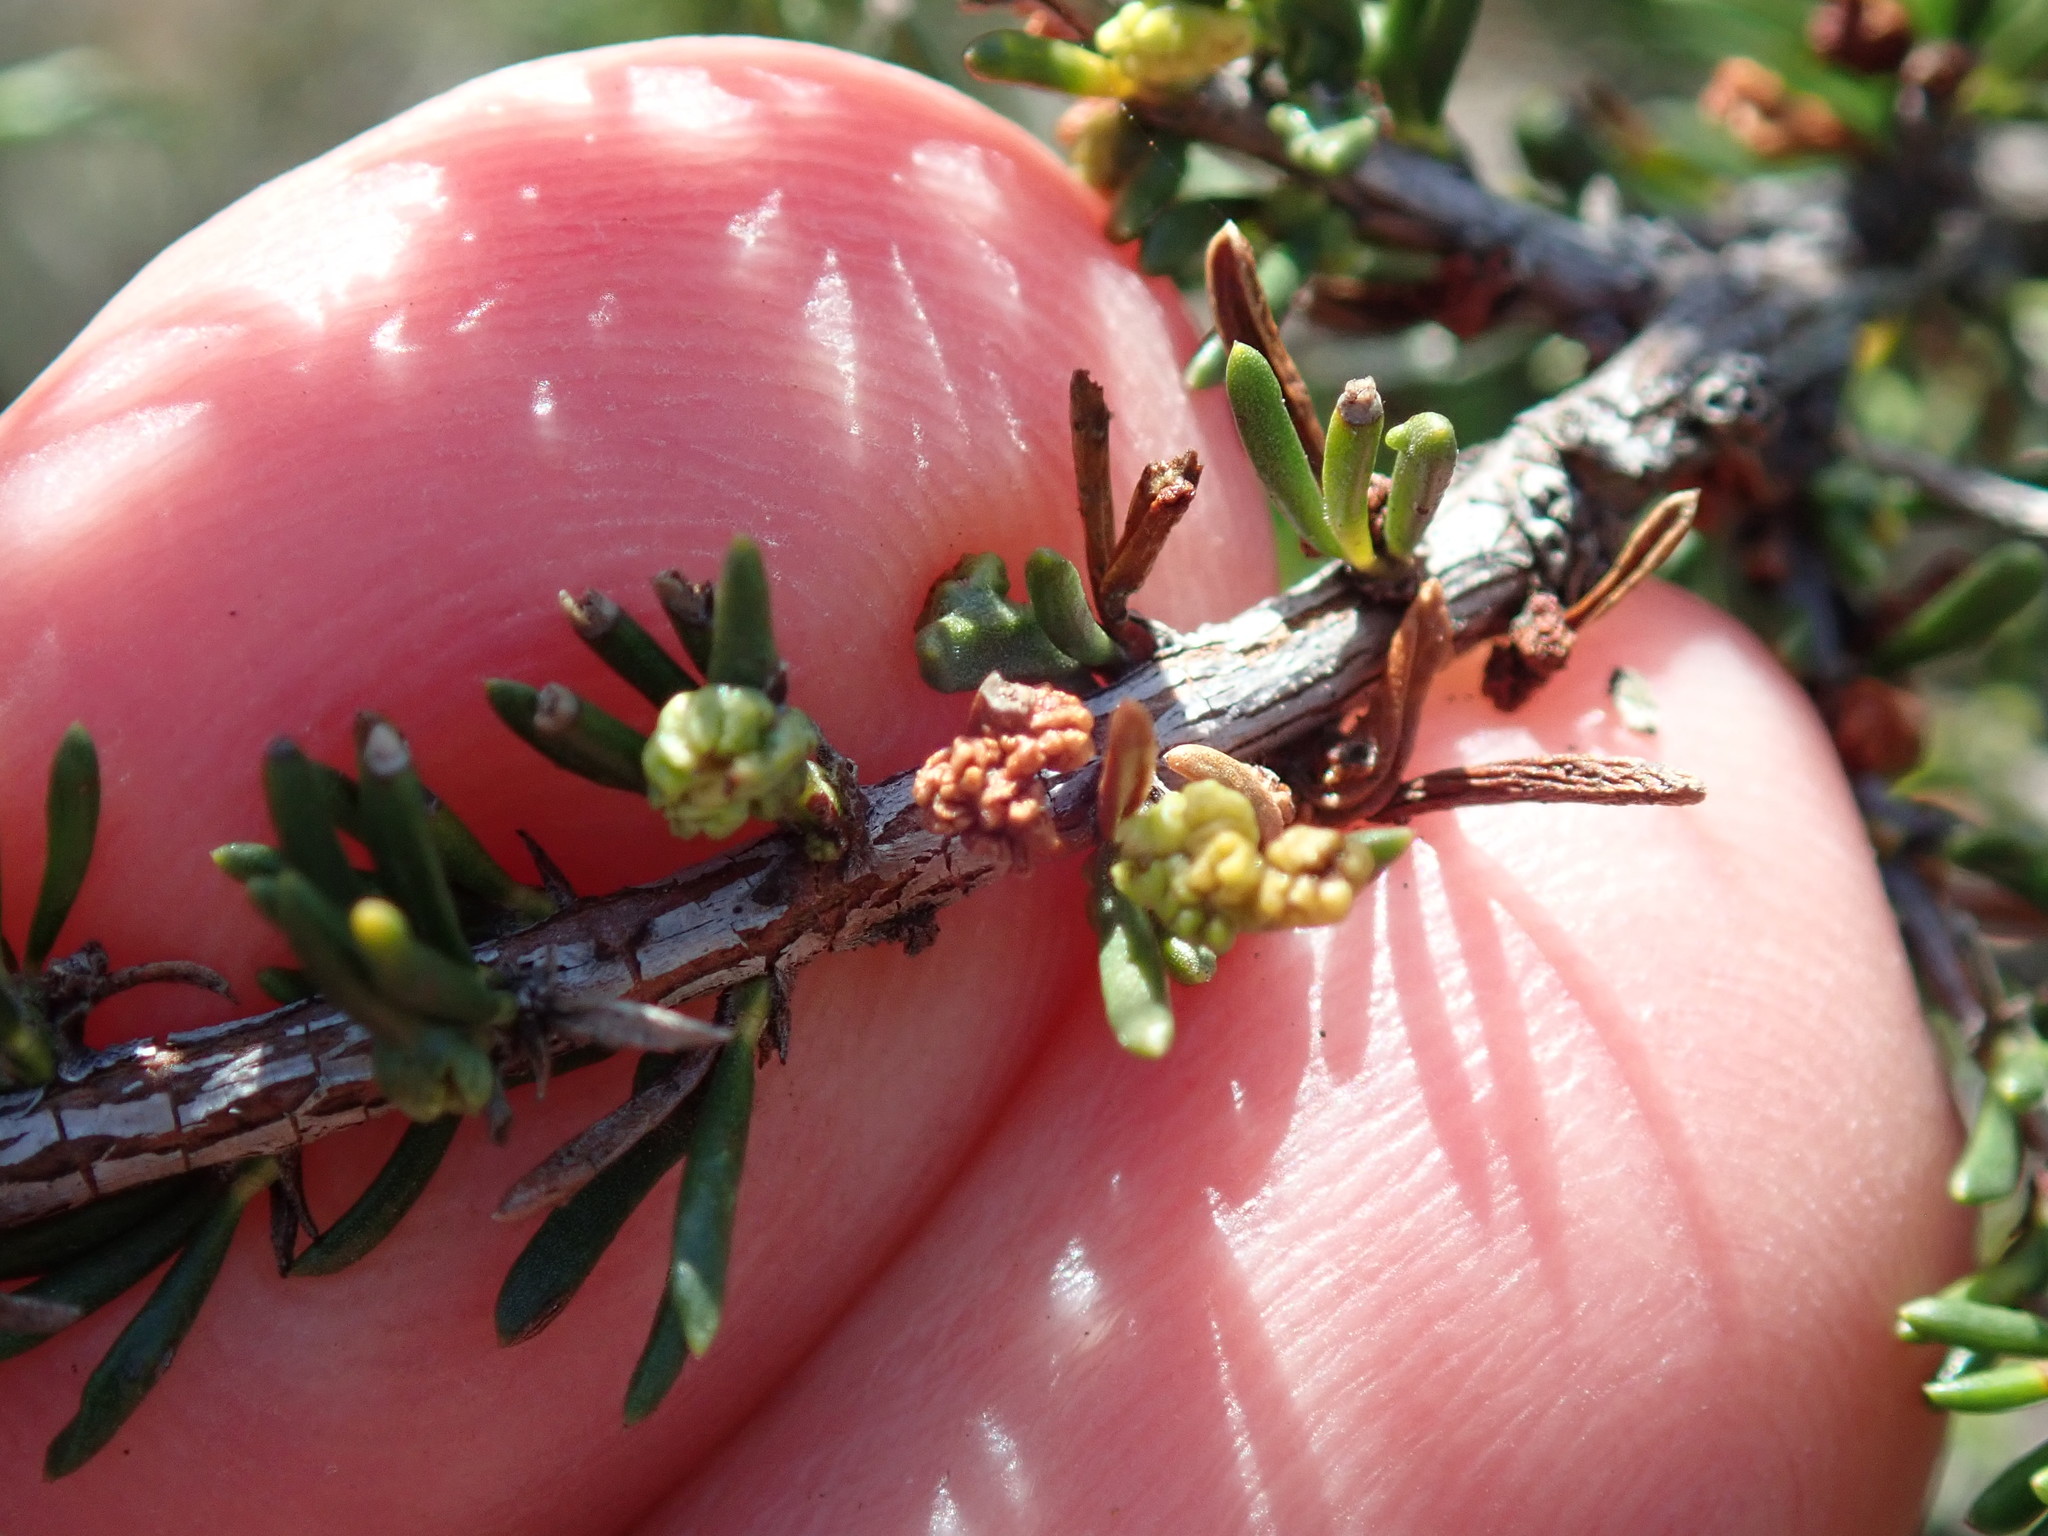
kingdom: Animalia
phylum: Arthropoda
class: Arachnida
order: Trombidiformes
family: Eriophyidae
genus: Eriophyes
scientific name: Eriophyes
